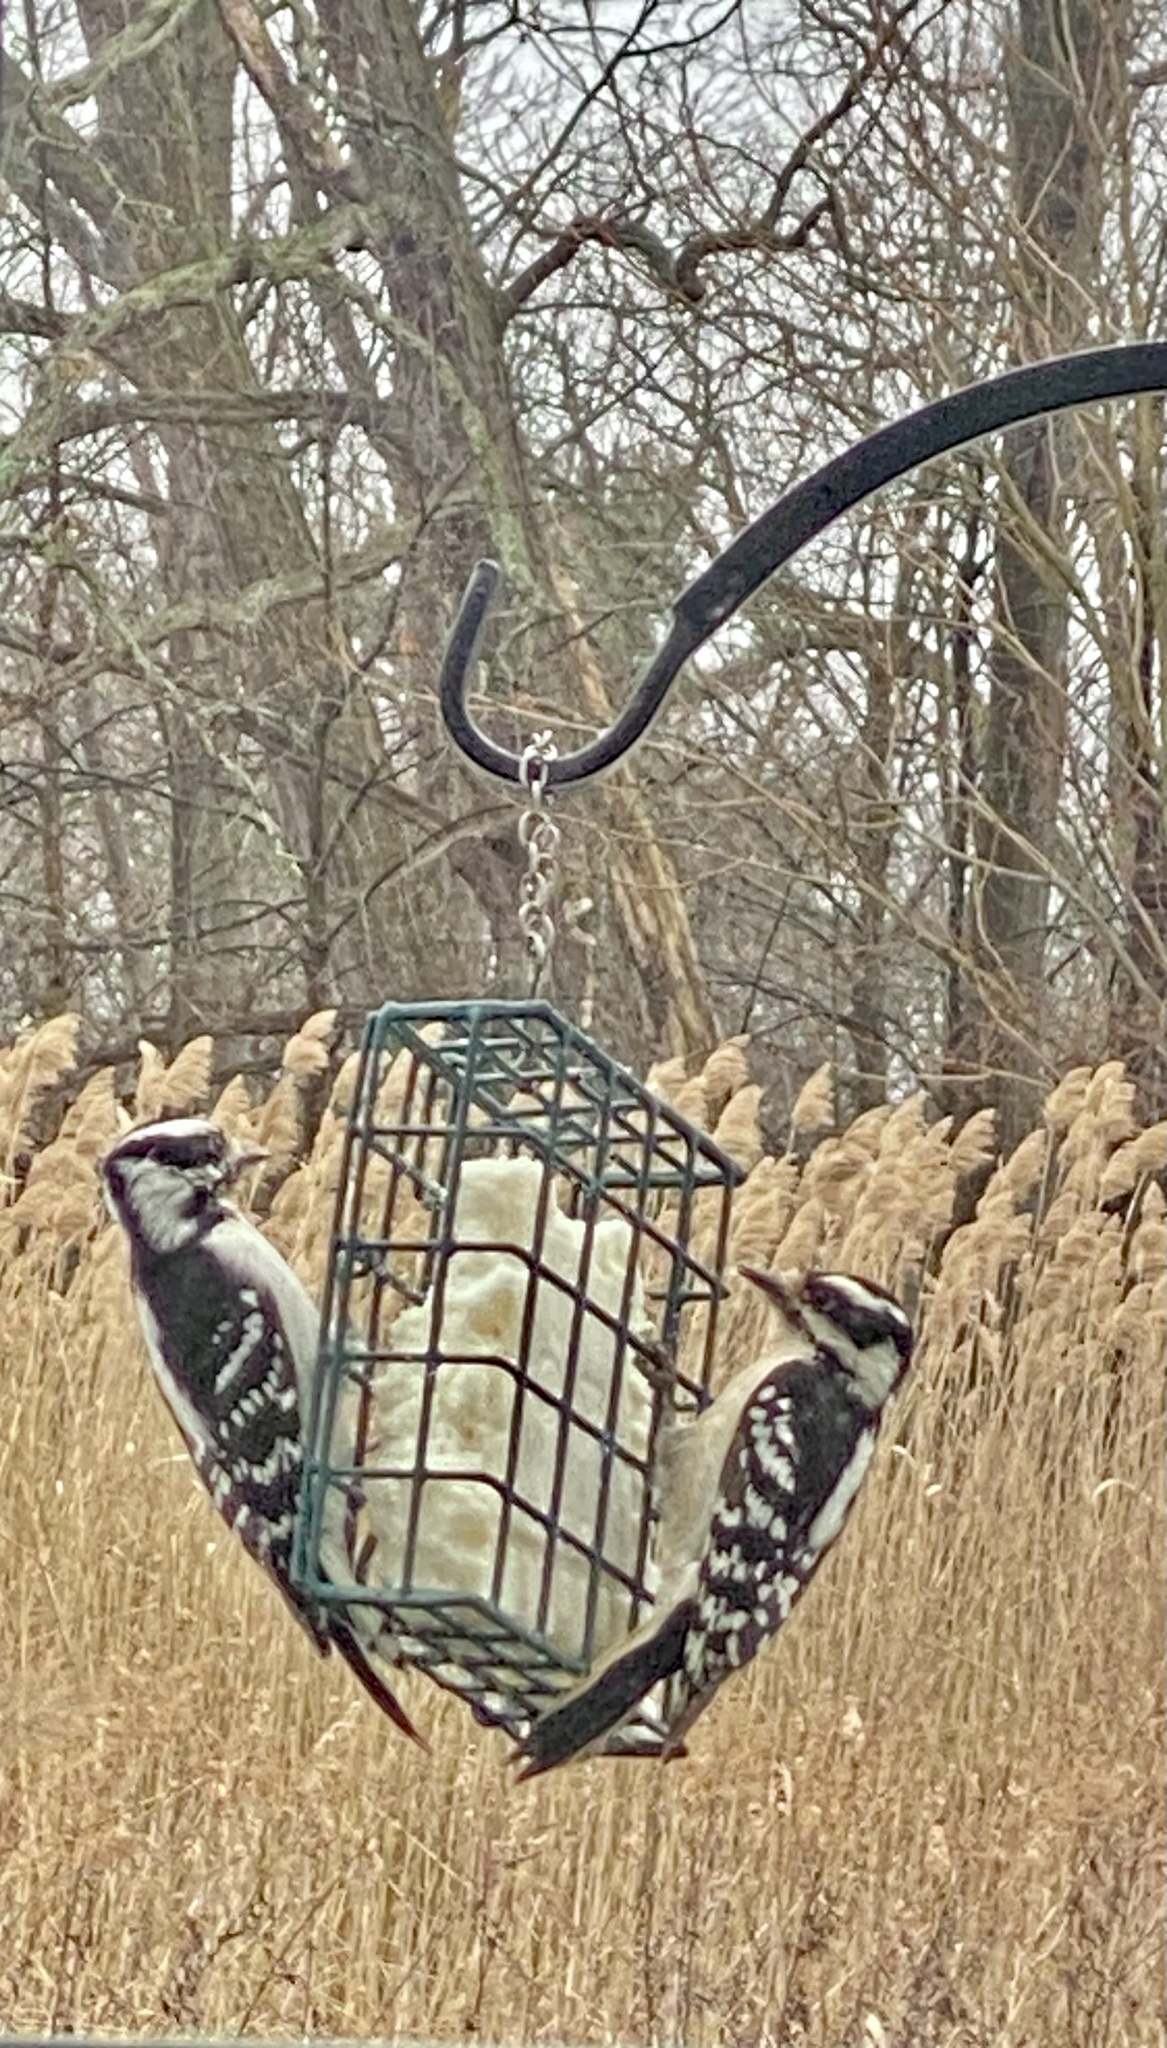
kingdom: Animalia
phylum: Chordata
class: Aves
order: Piciformes
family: Picidae
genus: Dryobates
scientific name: Dryobates pubescens
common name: Downy woodpecker
